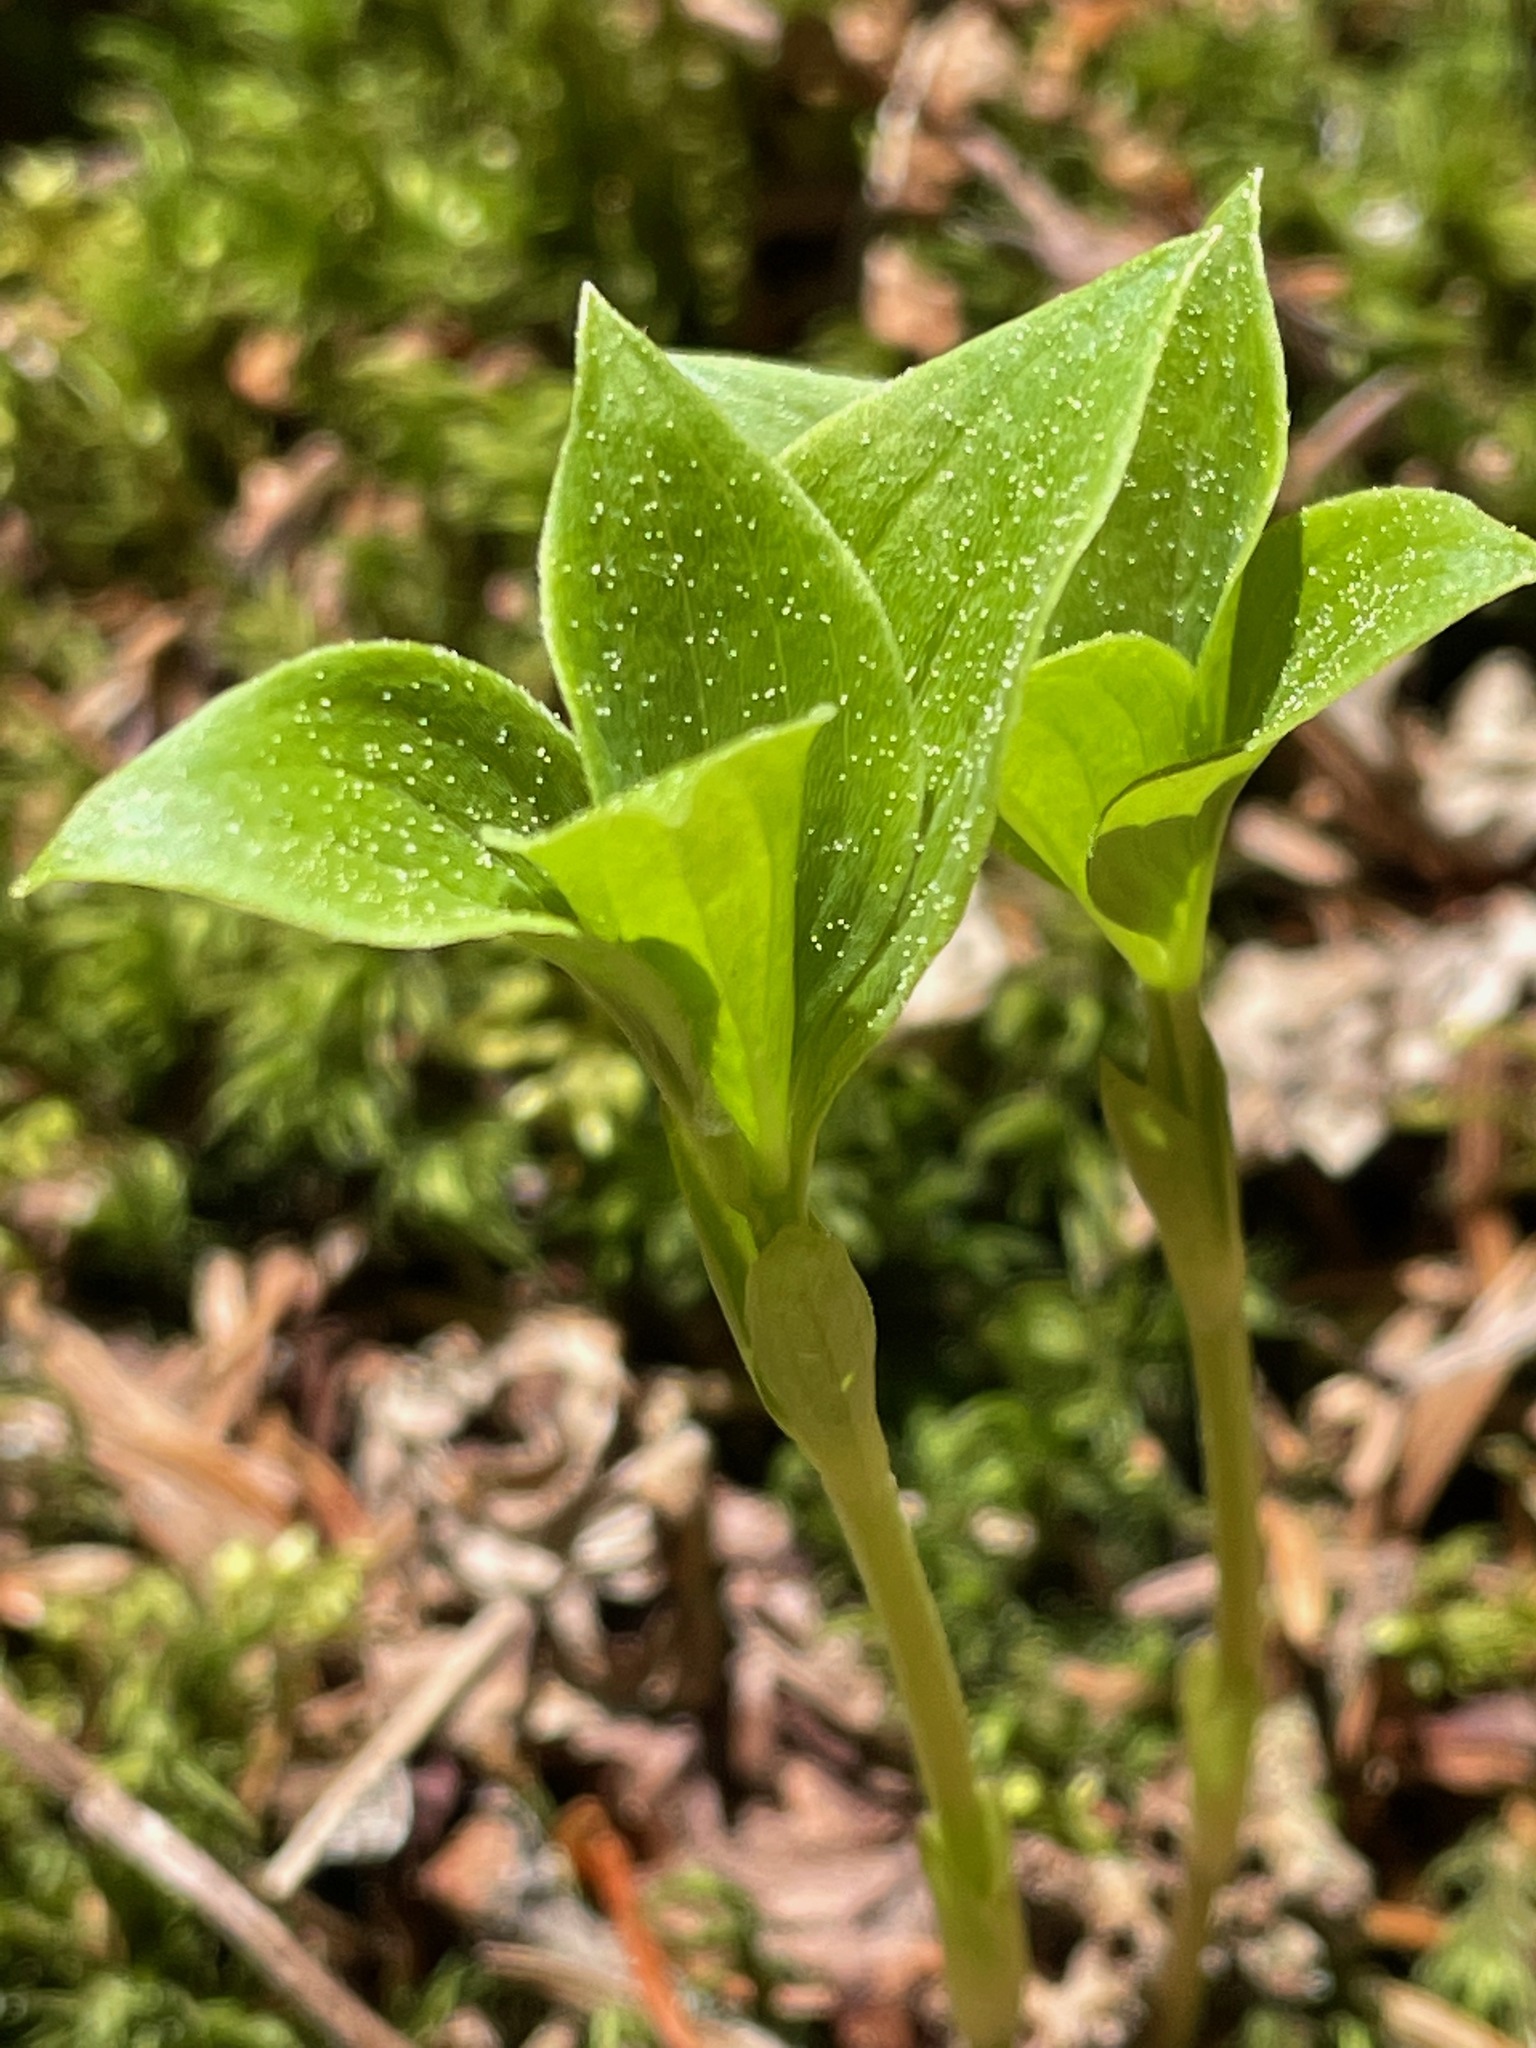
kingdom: Plantae
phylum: Tracheophyta
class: Magnoliopsida
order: Cornales
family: Cornaceae
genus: Cornus
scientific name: Cornus canadensis
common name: Creeping dogwood
